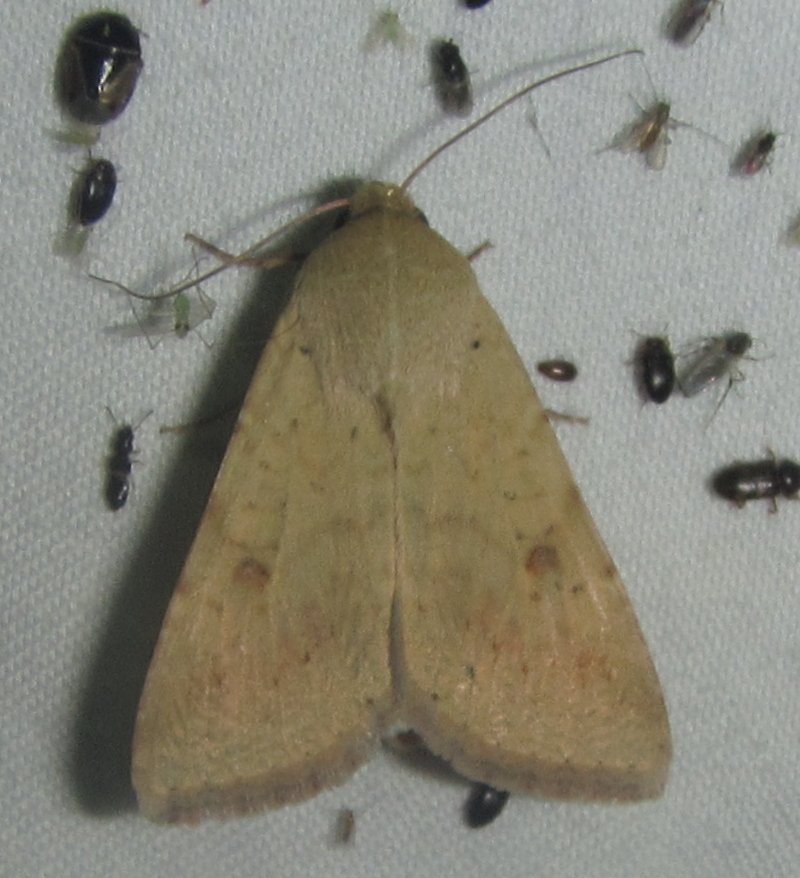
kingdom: Animalia
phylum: Arthropoda
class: Insecta
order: Lepidoptera
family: Noctuidae
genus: Helicoverpa
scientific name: Helicoverpa armigera
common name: Cotton bollworm
